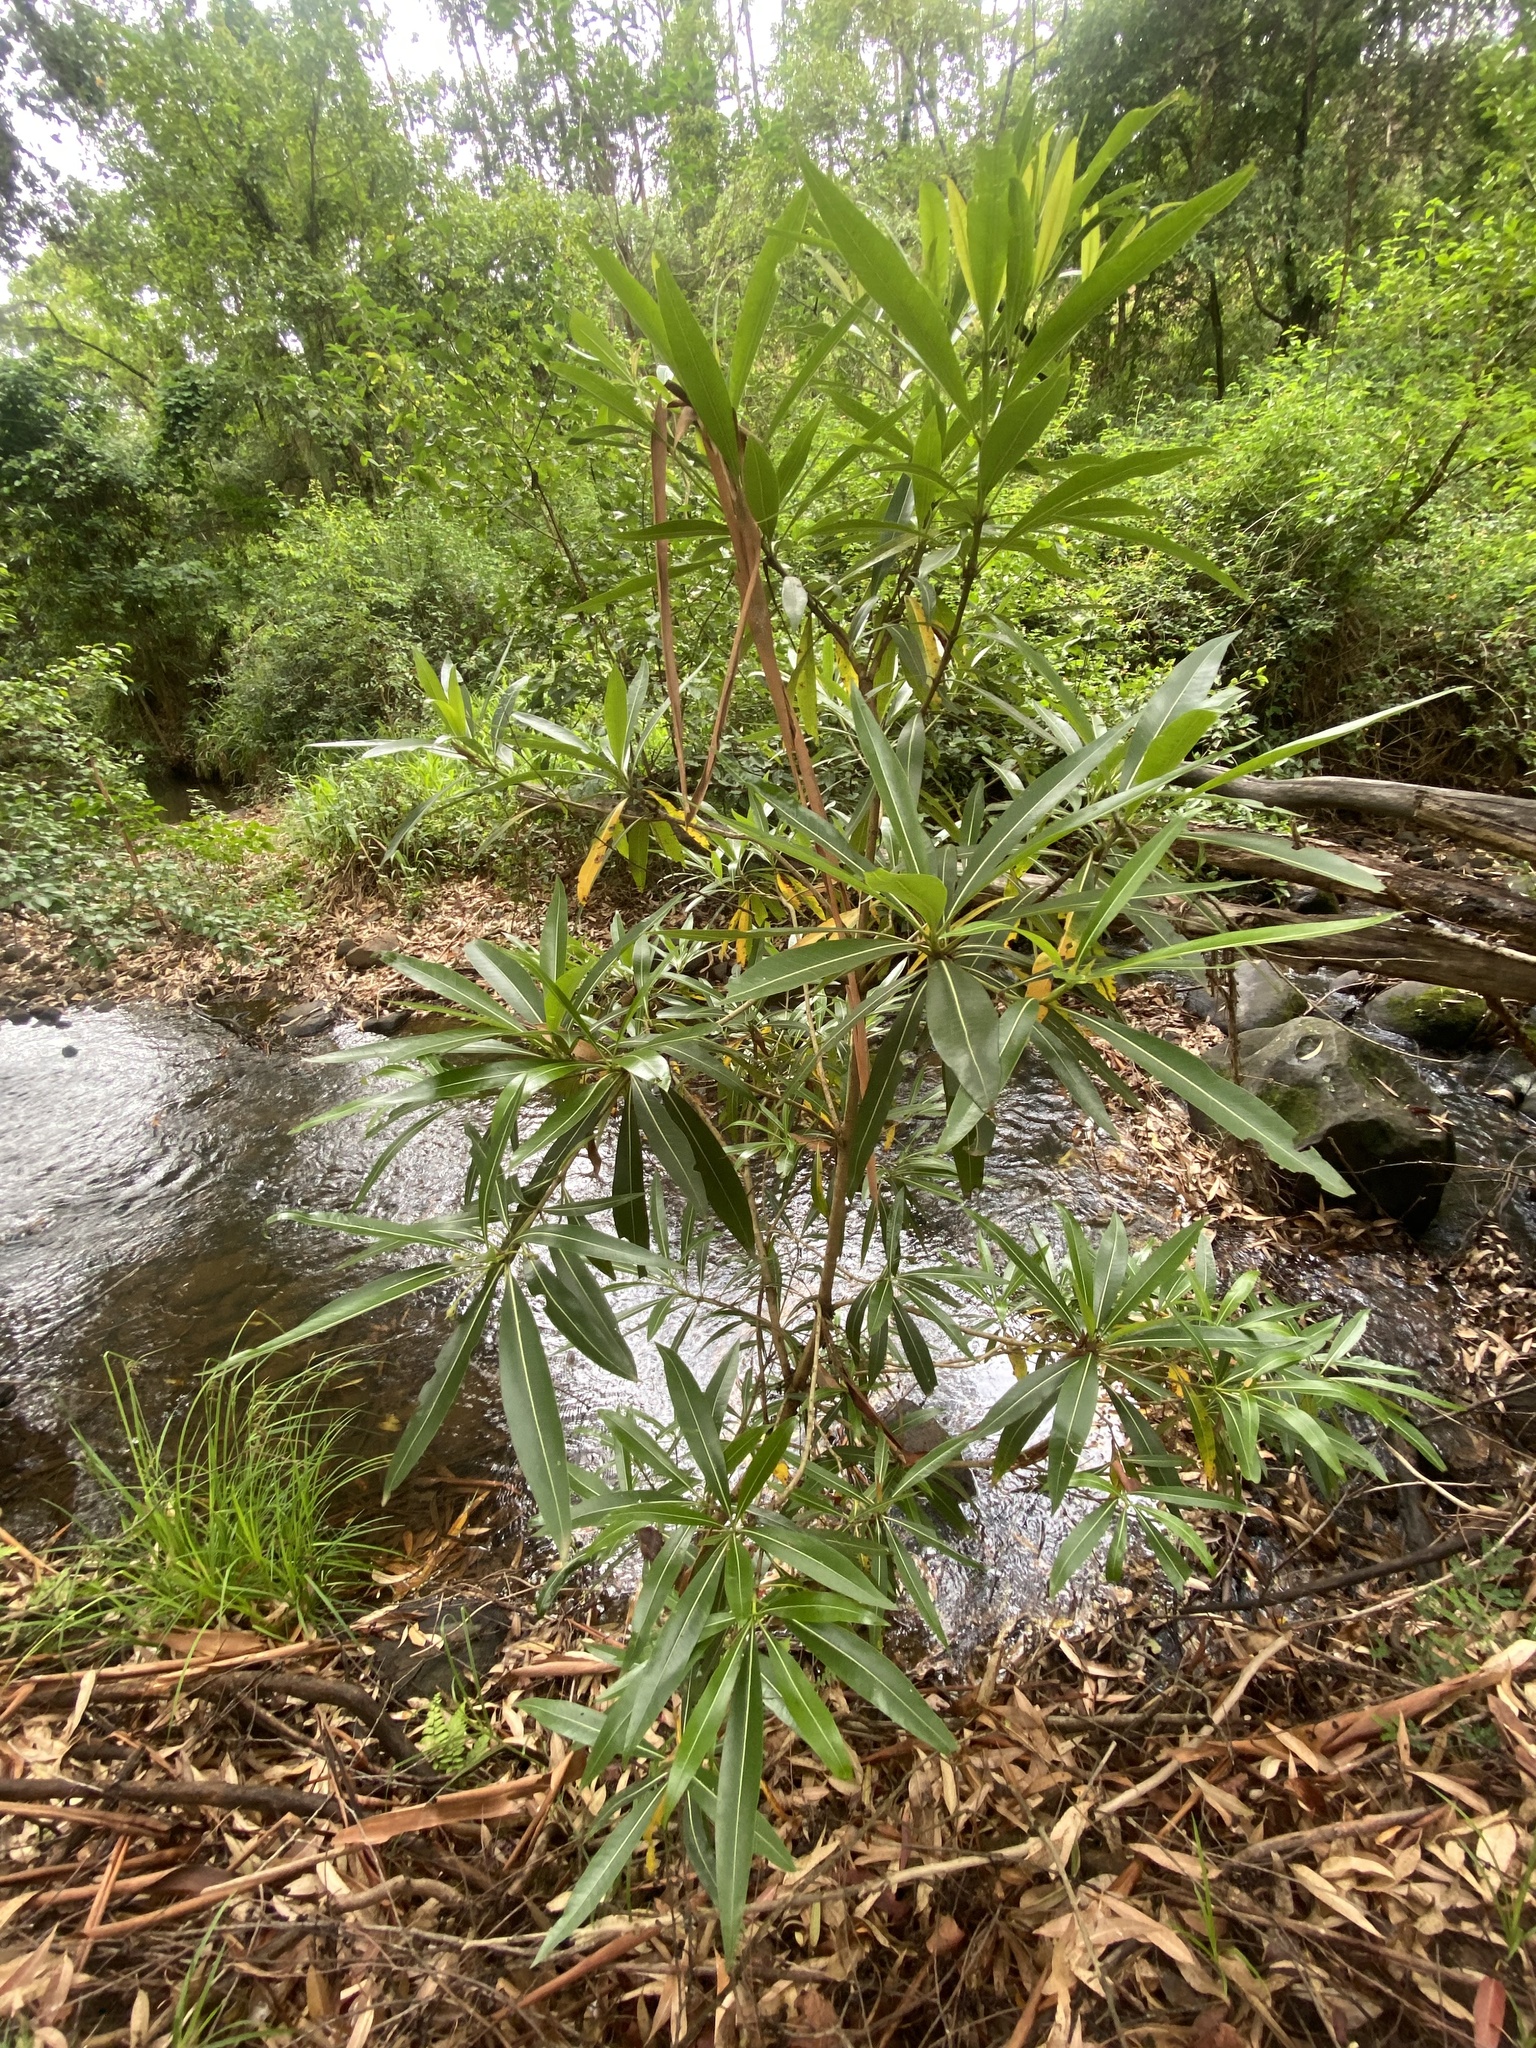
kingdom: Plantae
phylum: Tracheophyta
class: Magnoliopsida
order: Gentianales
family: Rubiaceae
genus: Breonadia
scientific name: Breonadia salicina
